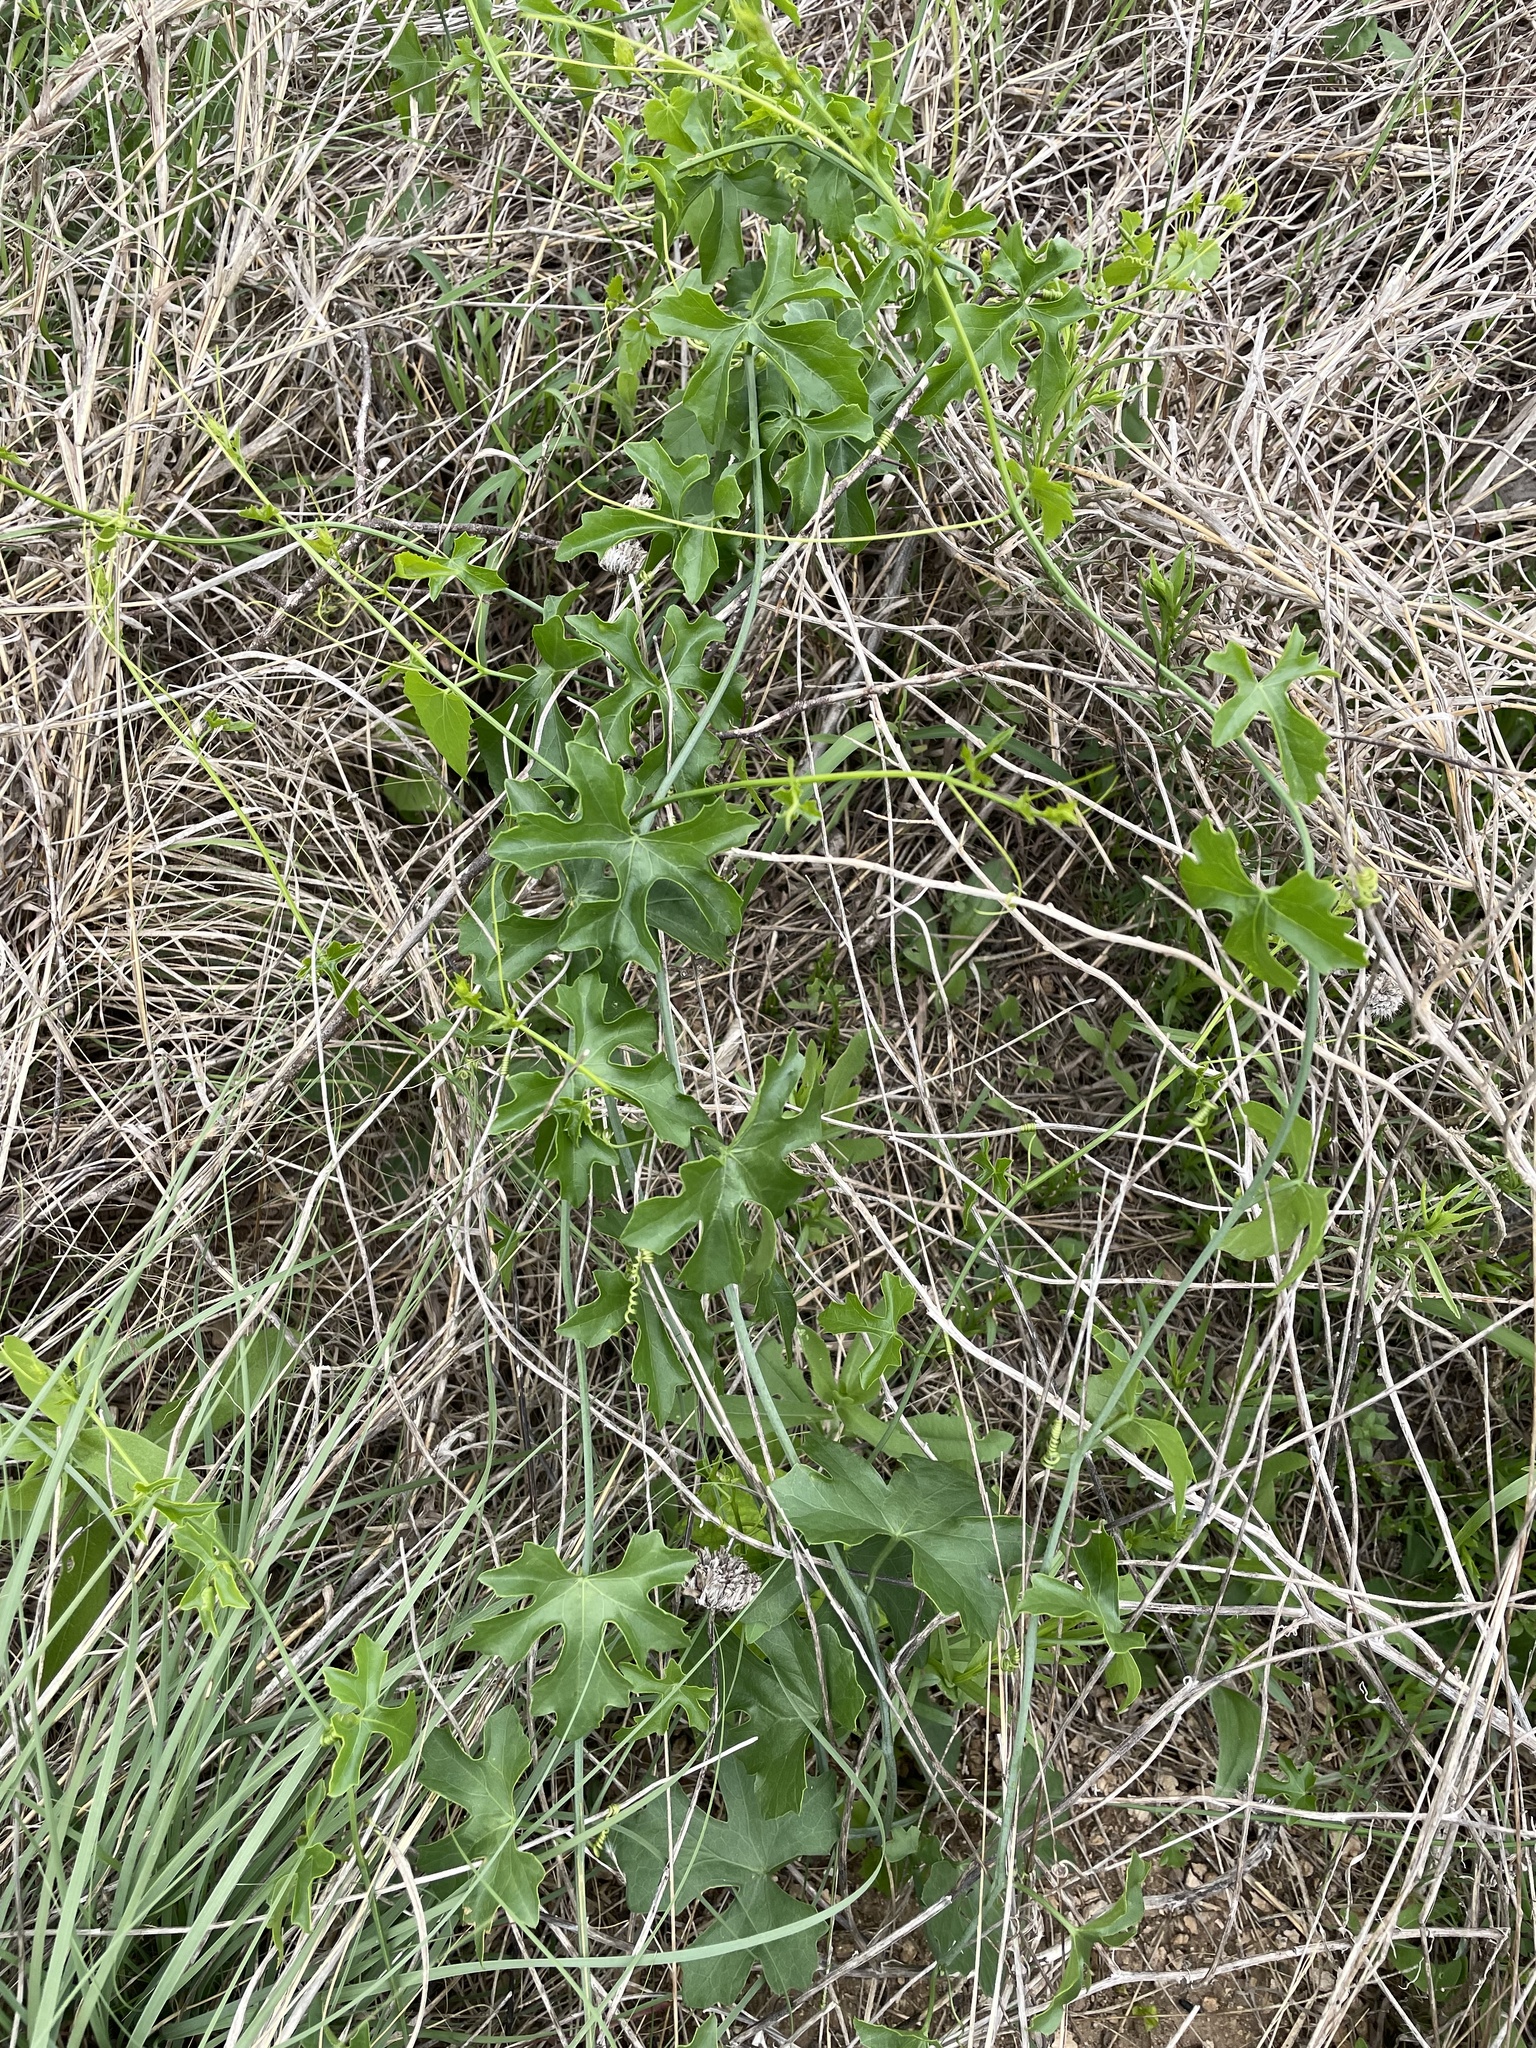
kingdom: Plantae
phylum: Tracheophyta
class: Magnoliopsida
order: Cucurbitales
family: Cucurbitaceae
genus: Ibervillea
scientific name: Ibervillea lindheimeri
